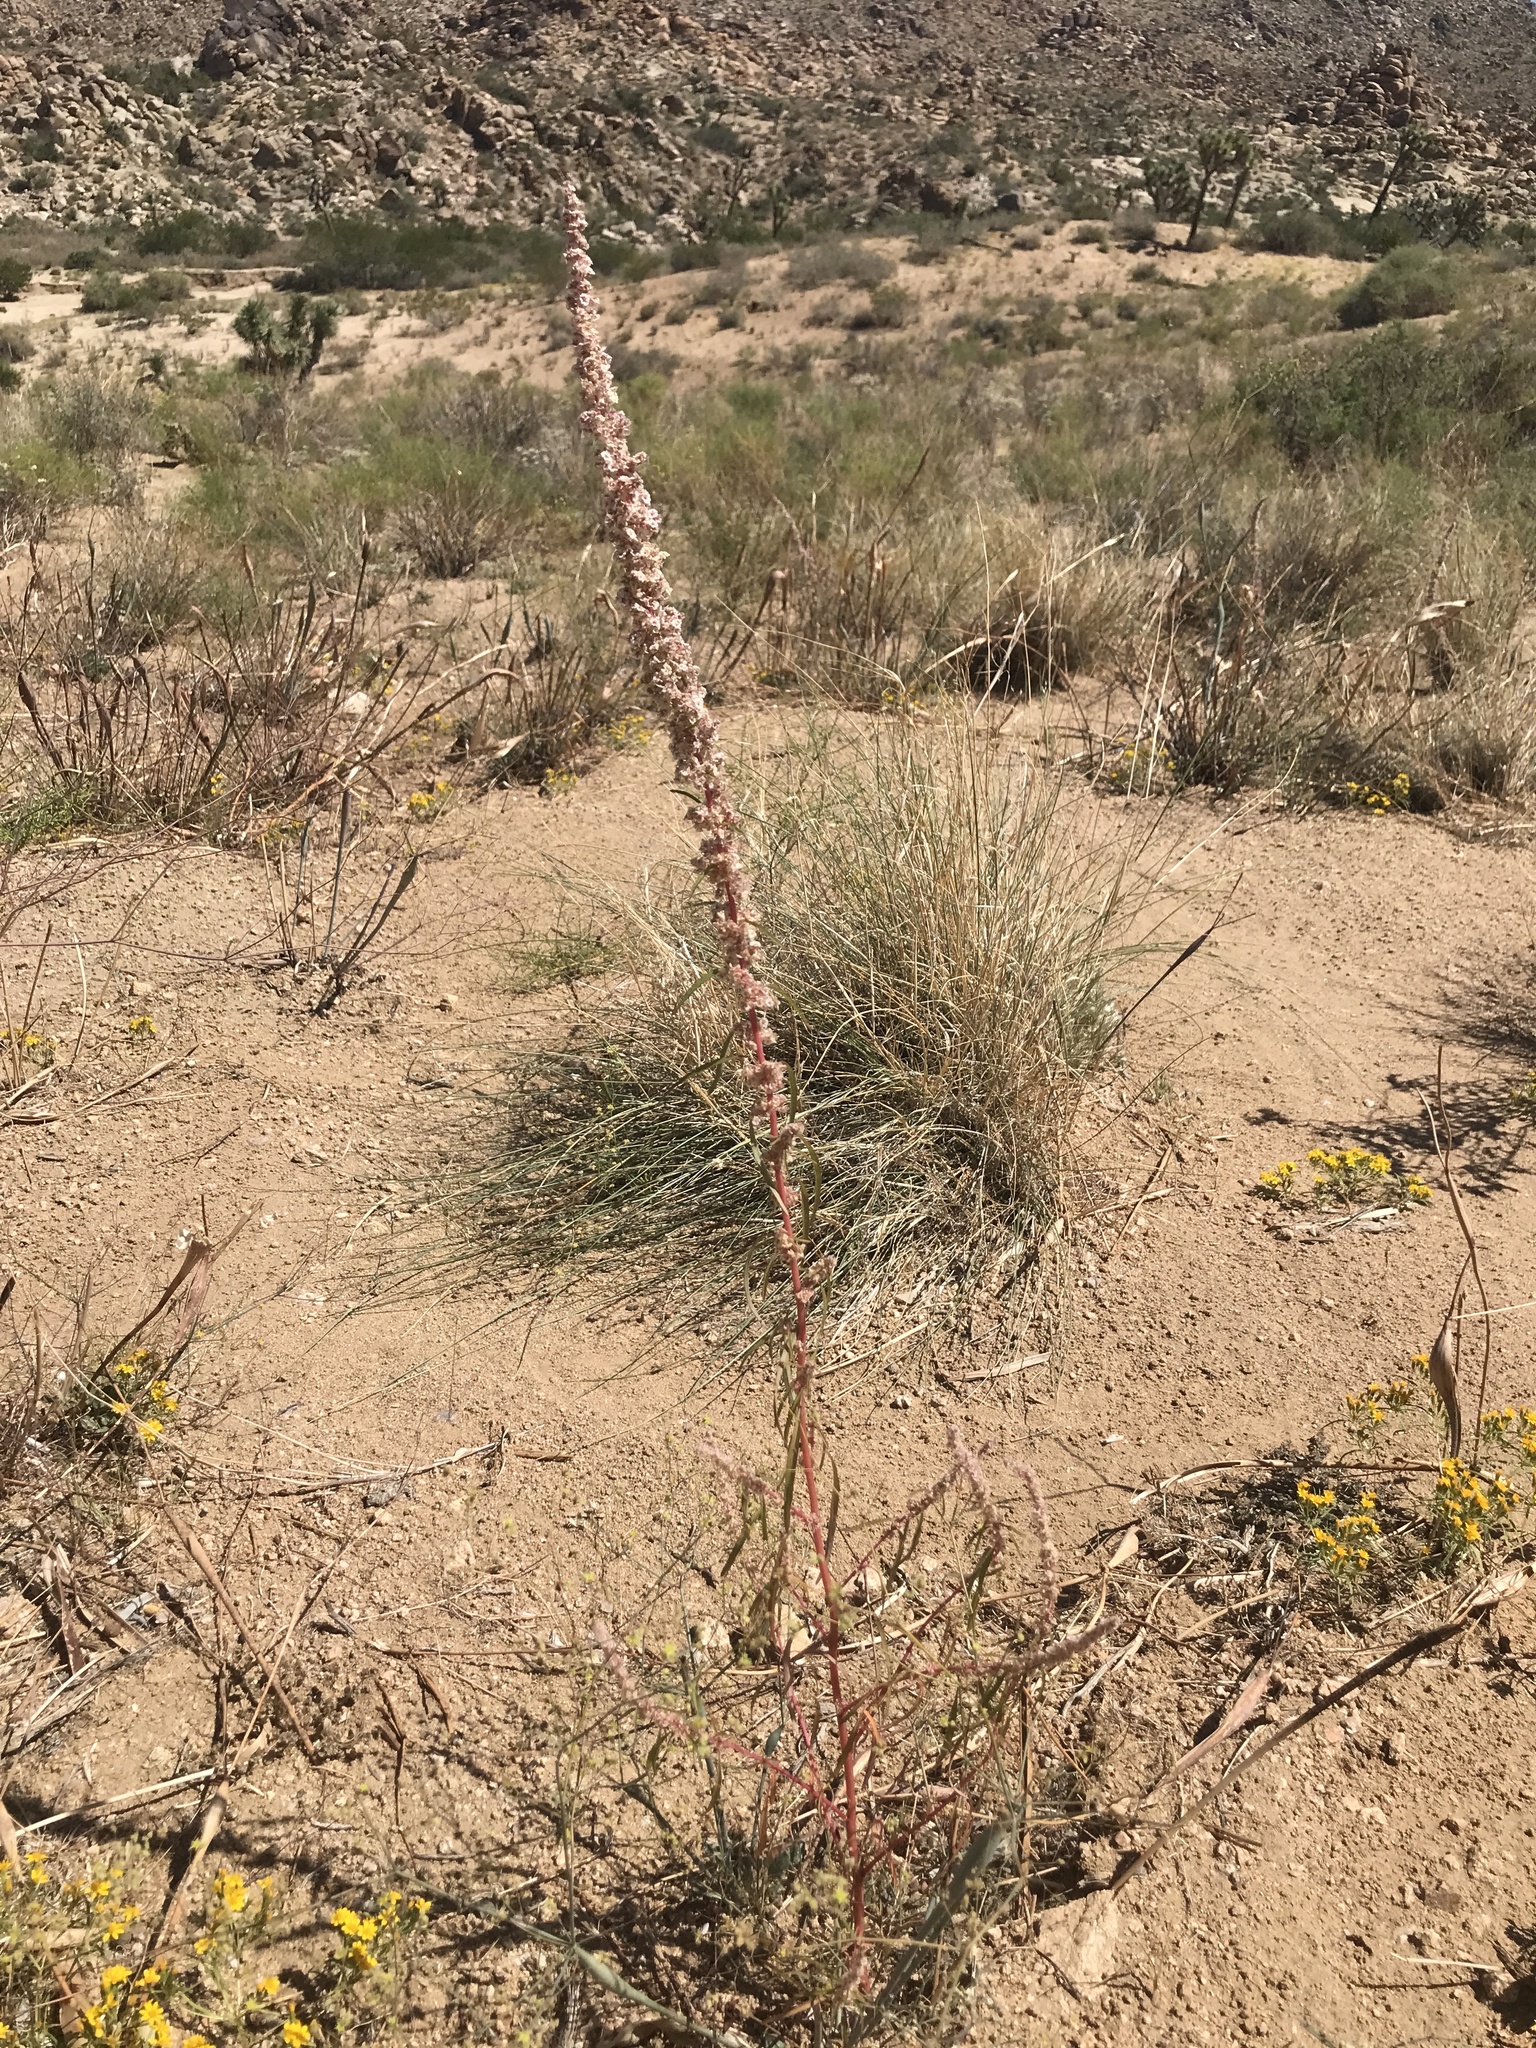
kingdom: Plantae
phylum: Tracheophyta
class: Magnoliopsida
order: Caryophyllales
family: Amaranthaceae
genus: Amaranthus
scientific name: Amaranthus fimbriatus
